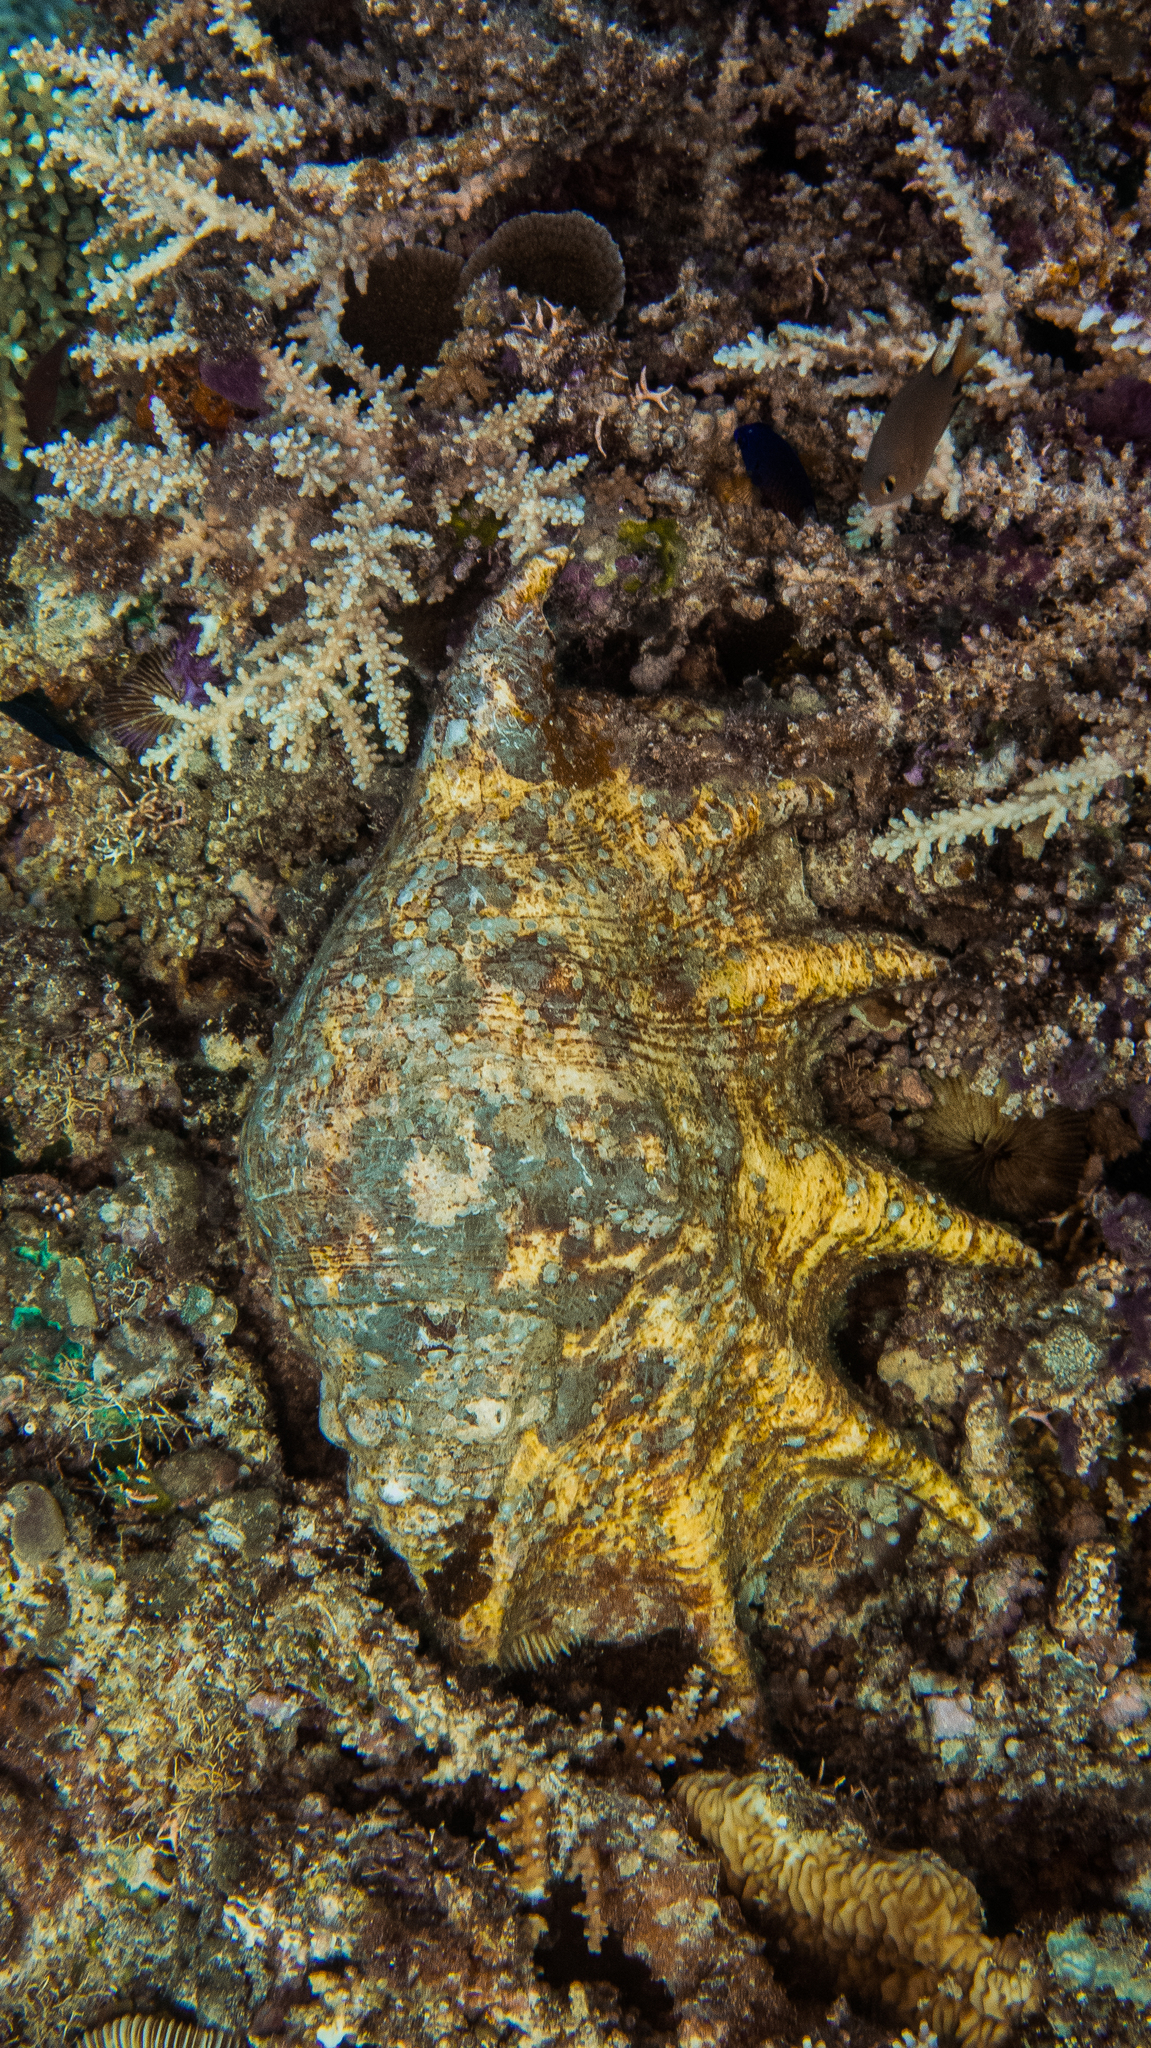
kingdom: Animalia
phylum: Mollusca
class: Gastropoda
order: Littorinimorpha
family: Strombidae
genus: Lambis
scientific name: Lambis truncata
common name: Giant spider conch
